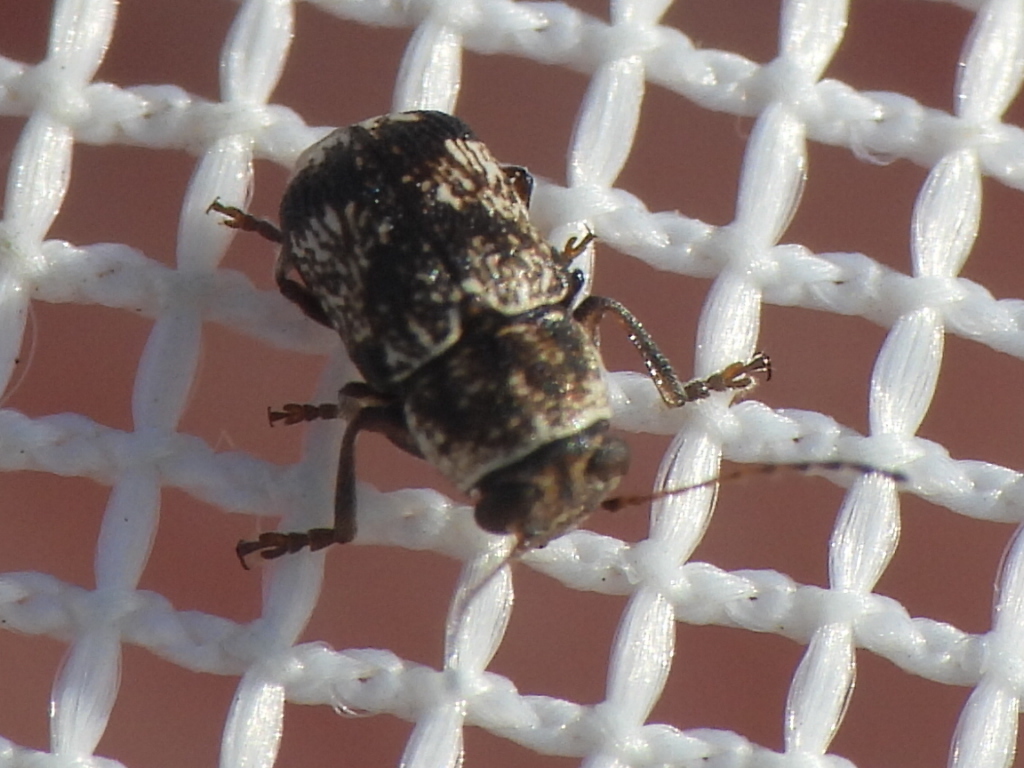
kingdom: Animalia
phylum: Arthropoda
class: Insecta
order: Coleoptera
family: Chrysomelidae
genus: Pachybrachis
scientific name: Pachybrachis brevicollis
